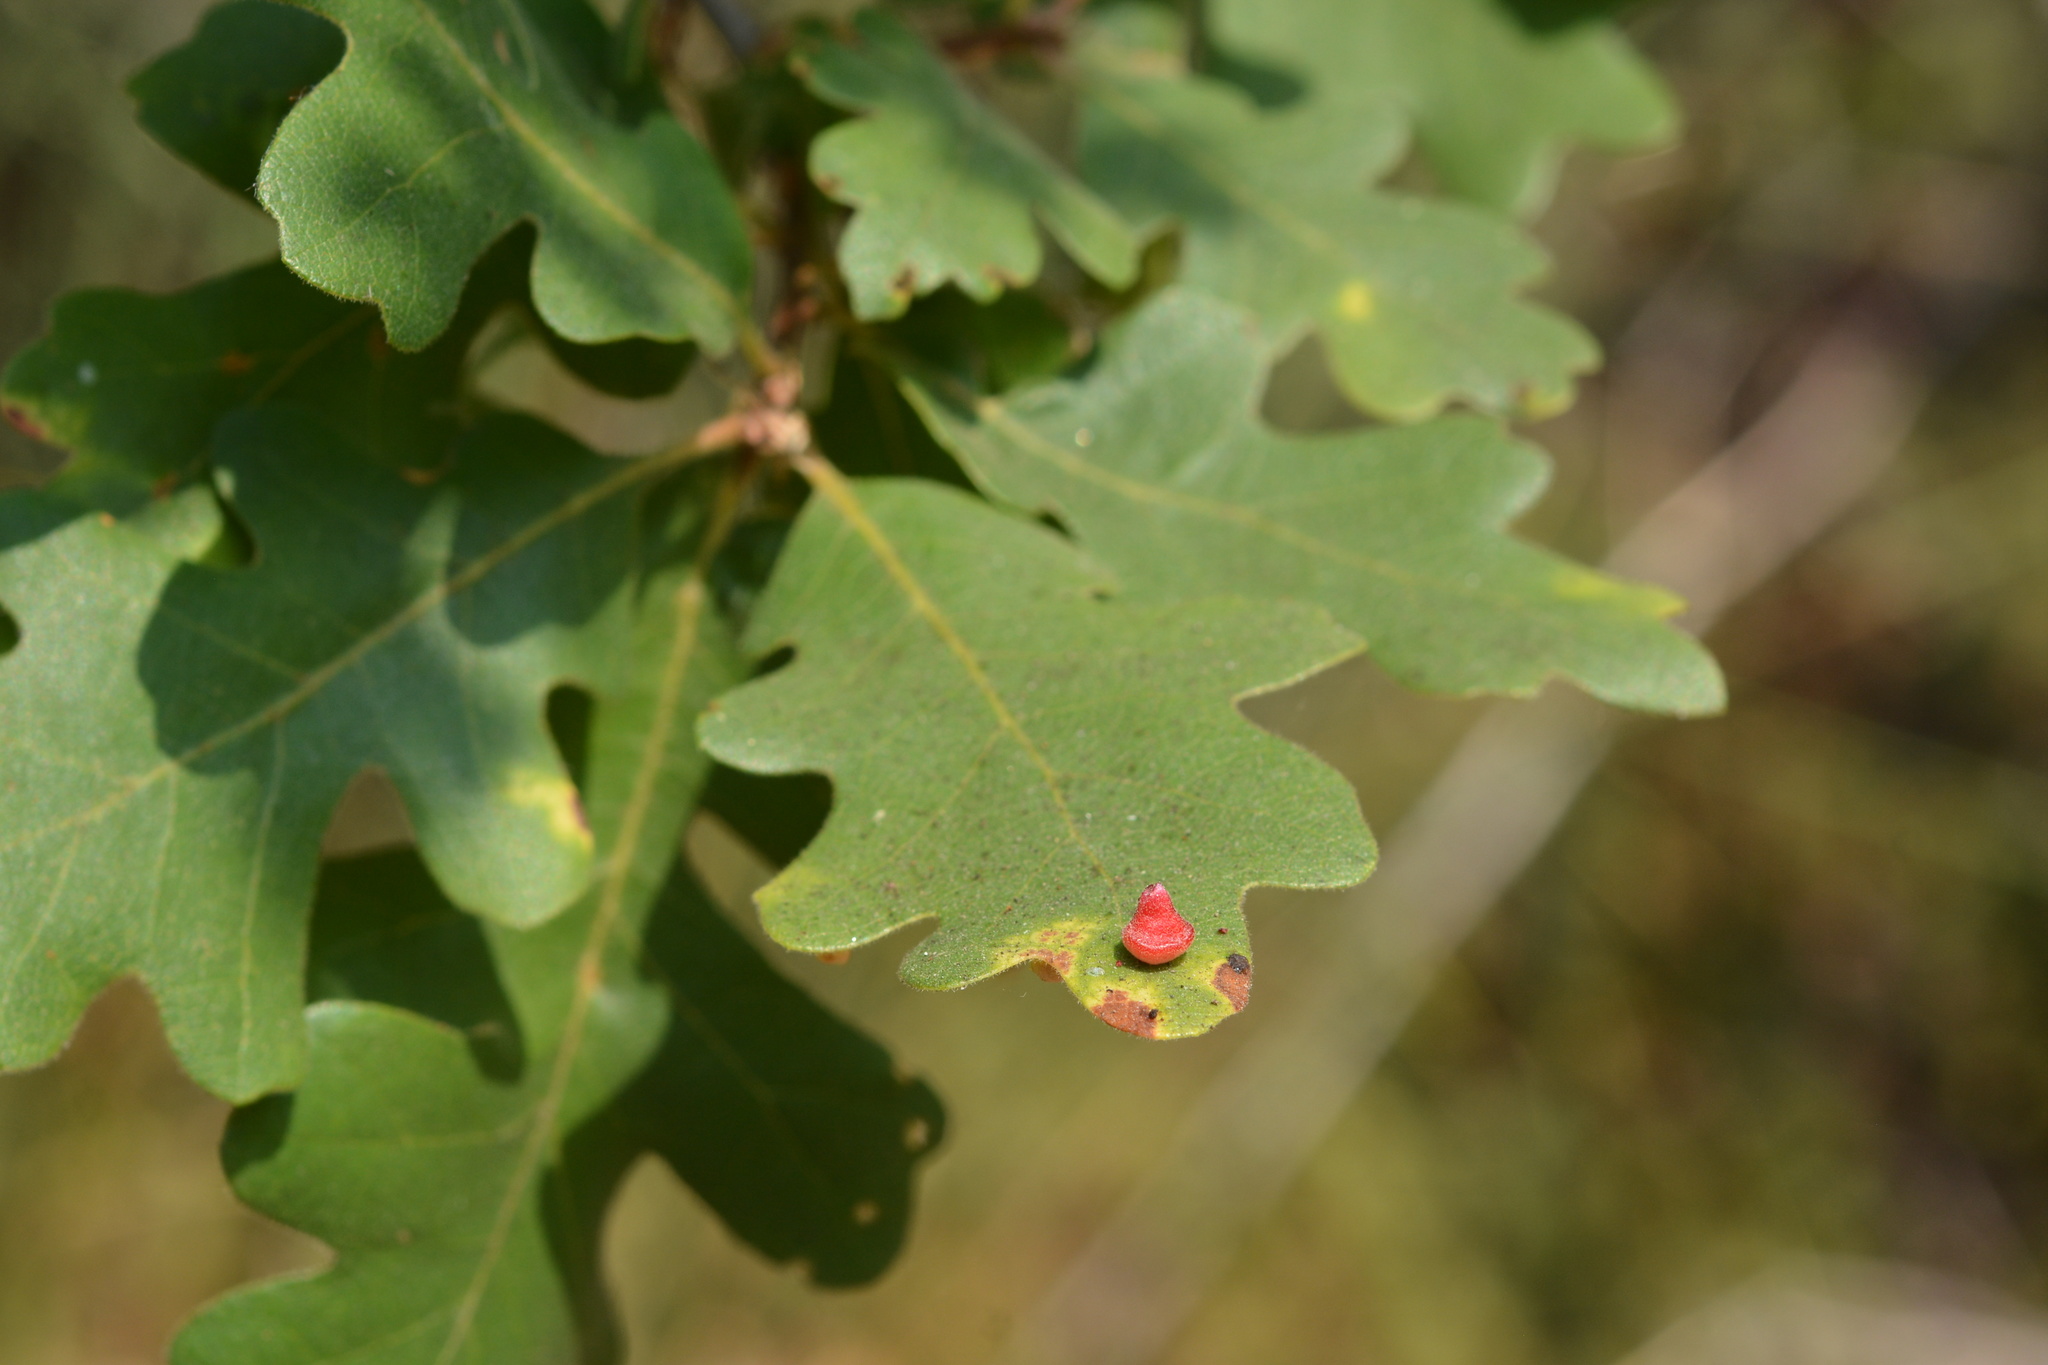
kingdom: Animalia
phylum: Arthropoda
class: Insecta
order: Hymenoptera
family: Cynipidae
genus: Andricus
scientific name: Andricus
